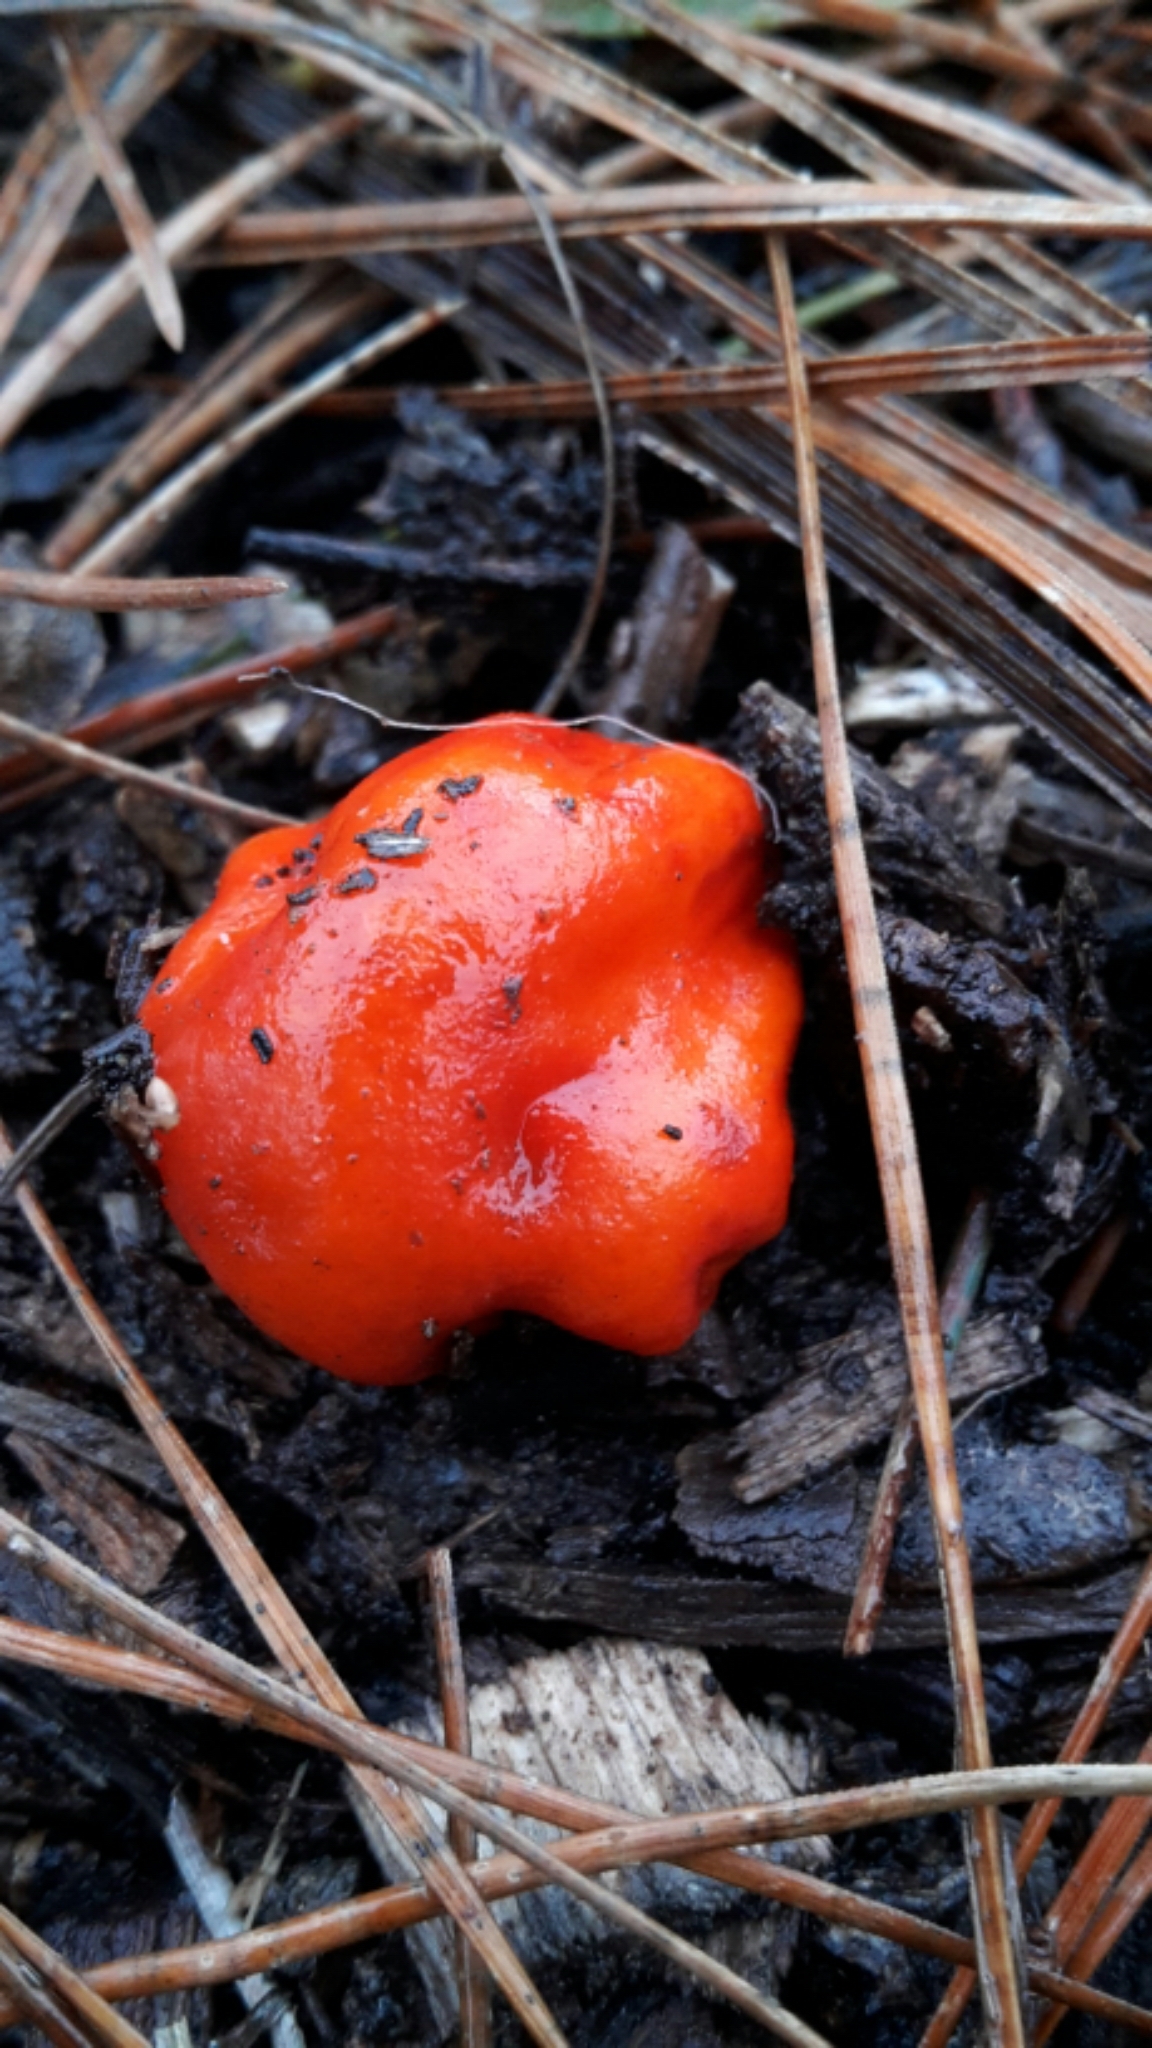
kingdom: Fungi
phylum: Basidiomycota
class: Agaricomycetes
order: Agaricales
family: Strophariaceae
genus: Leratiomyces
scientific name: Leratiomyces erythrocephalus
